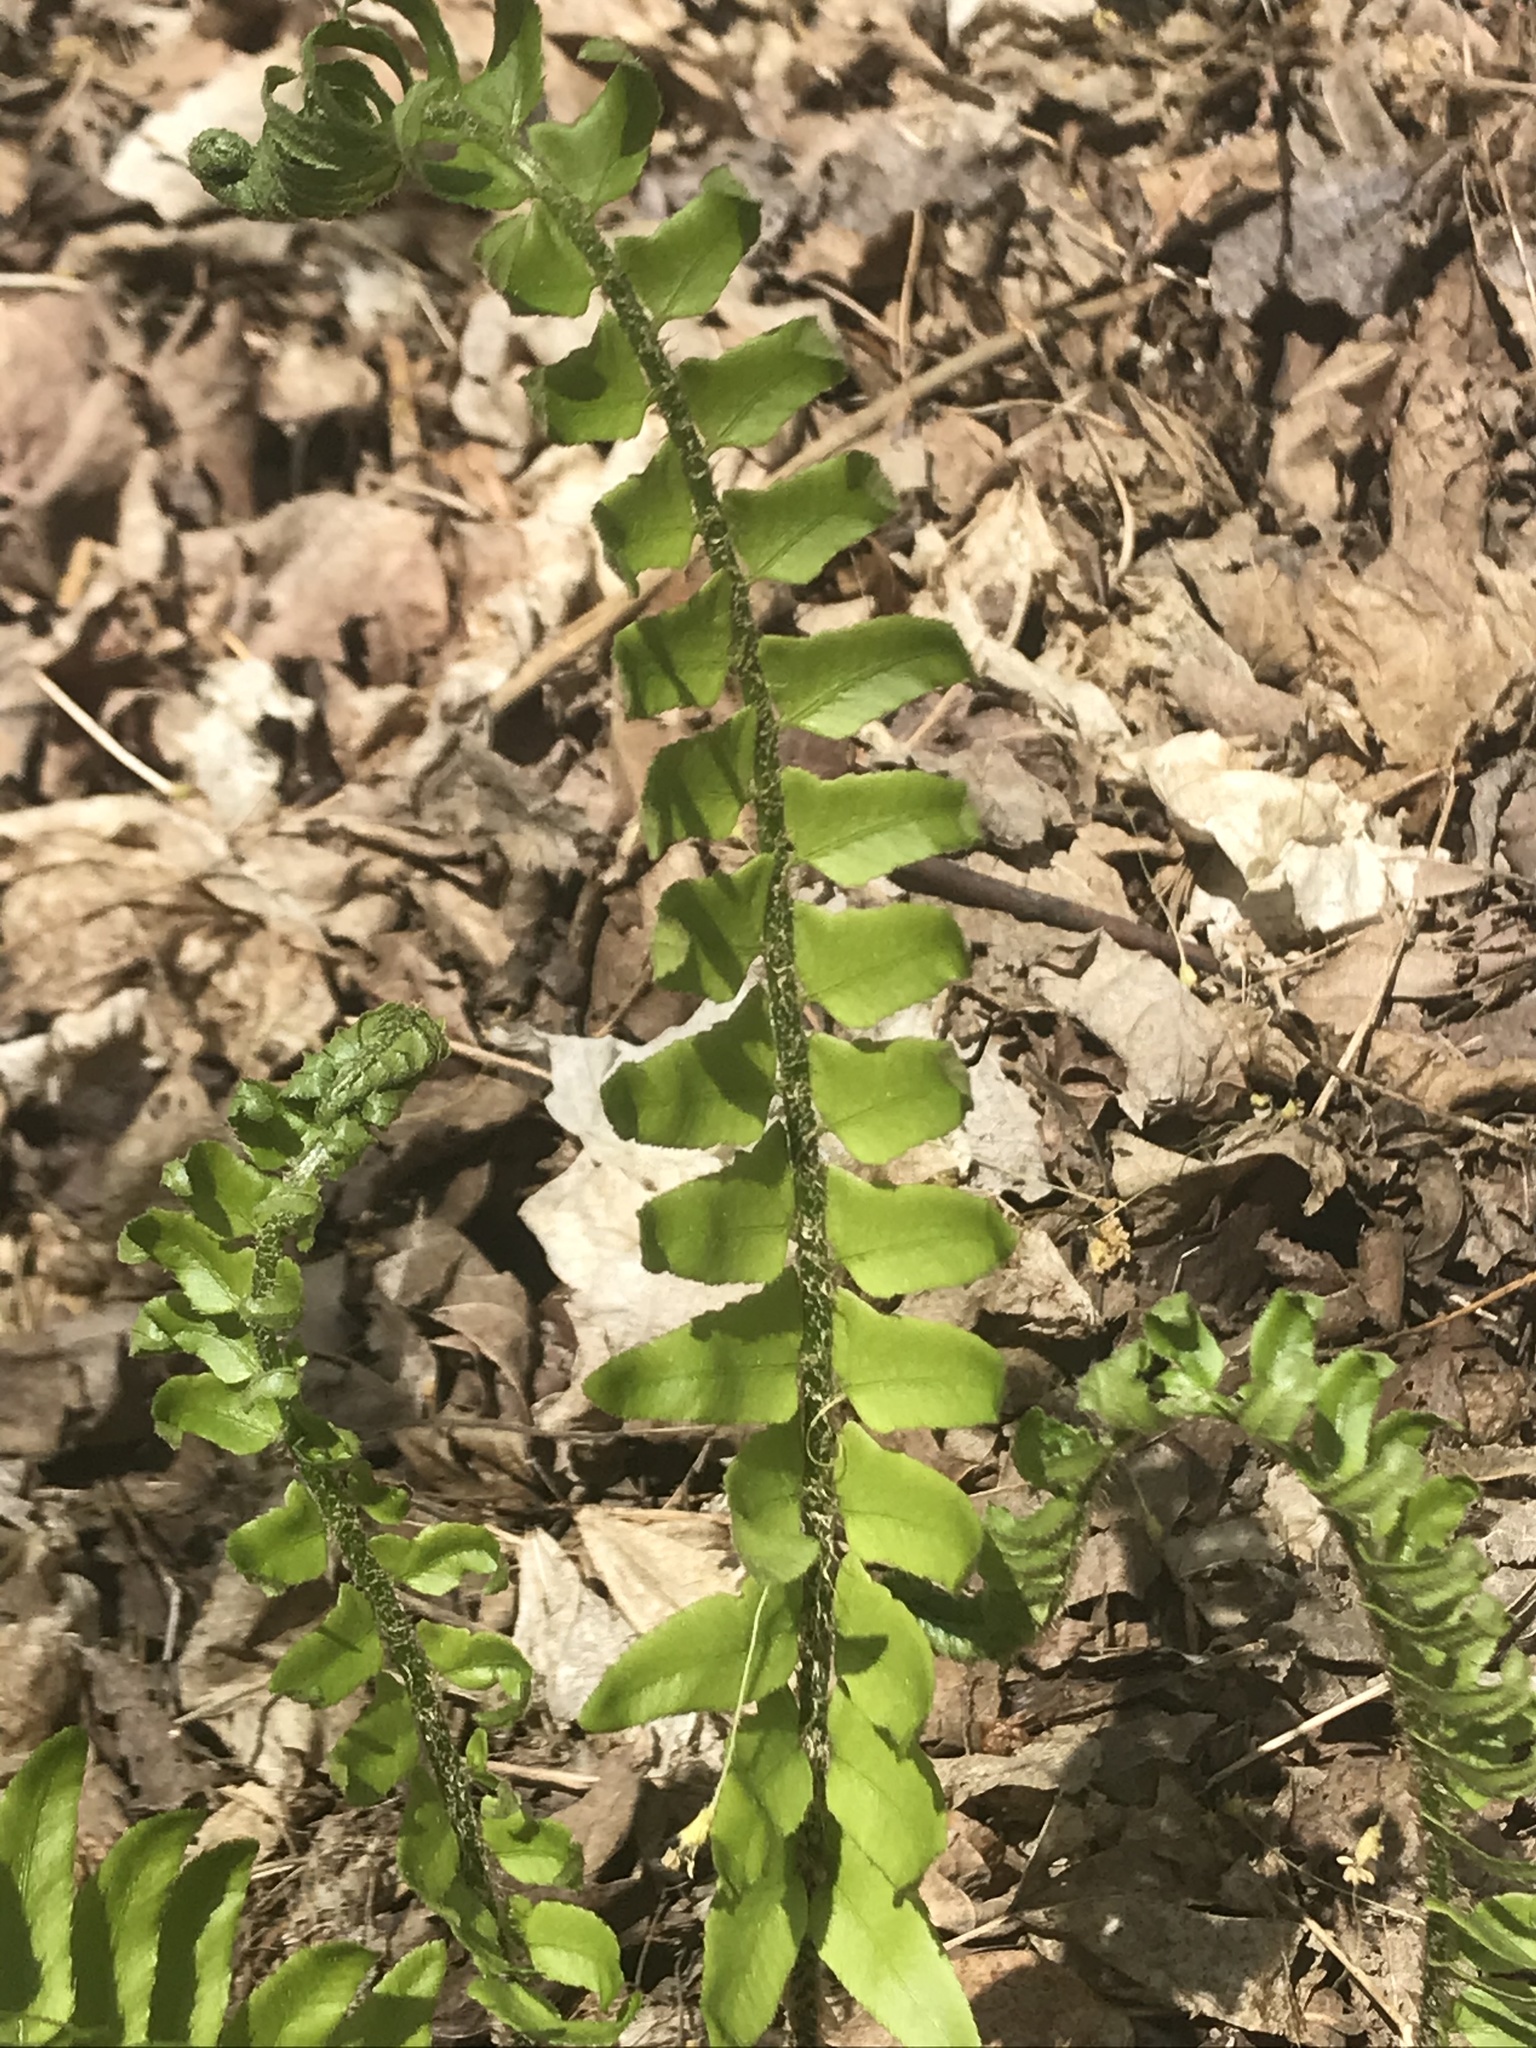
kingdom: Plantae
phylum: Tracheophyta
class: Polypodiopsida
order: Polypodiales
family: Dryopteridaceae
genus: Polystichum
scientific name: Polystichum acrostichoides
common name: Christmas fern
